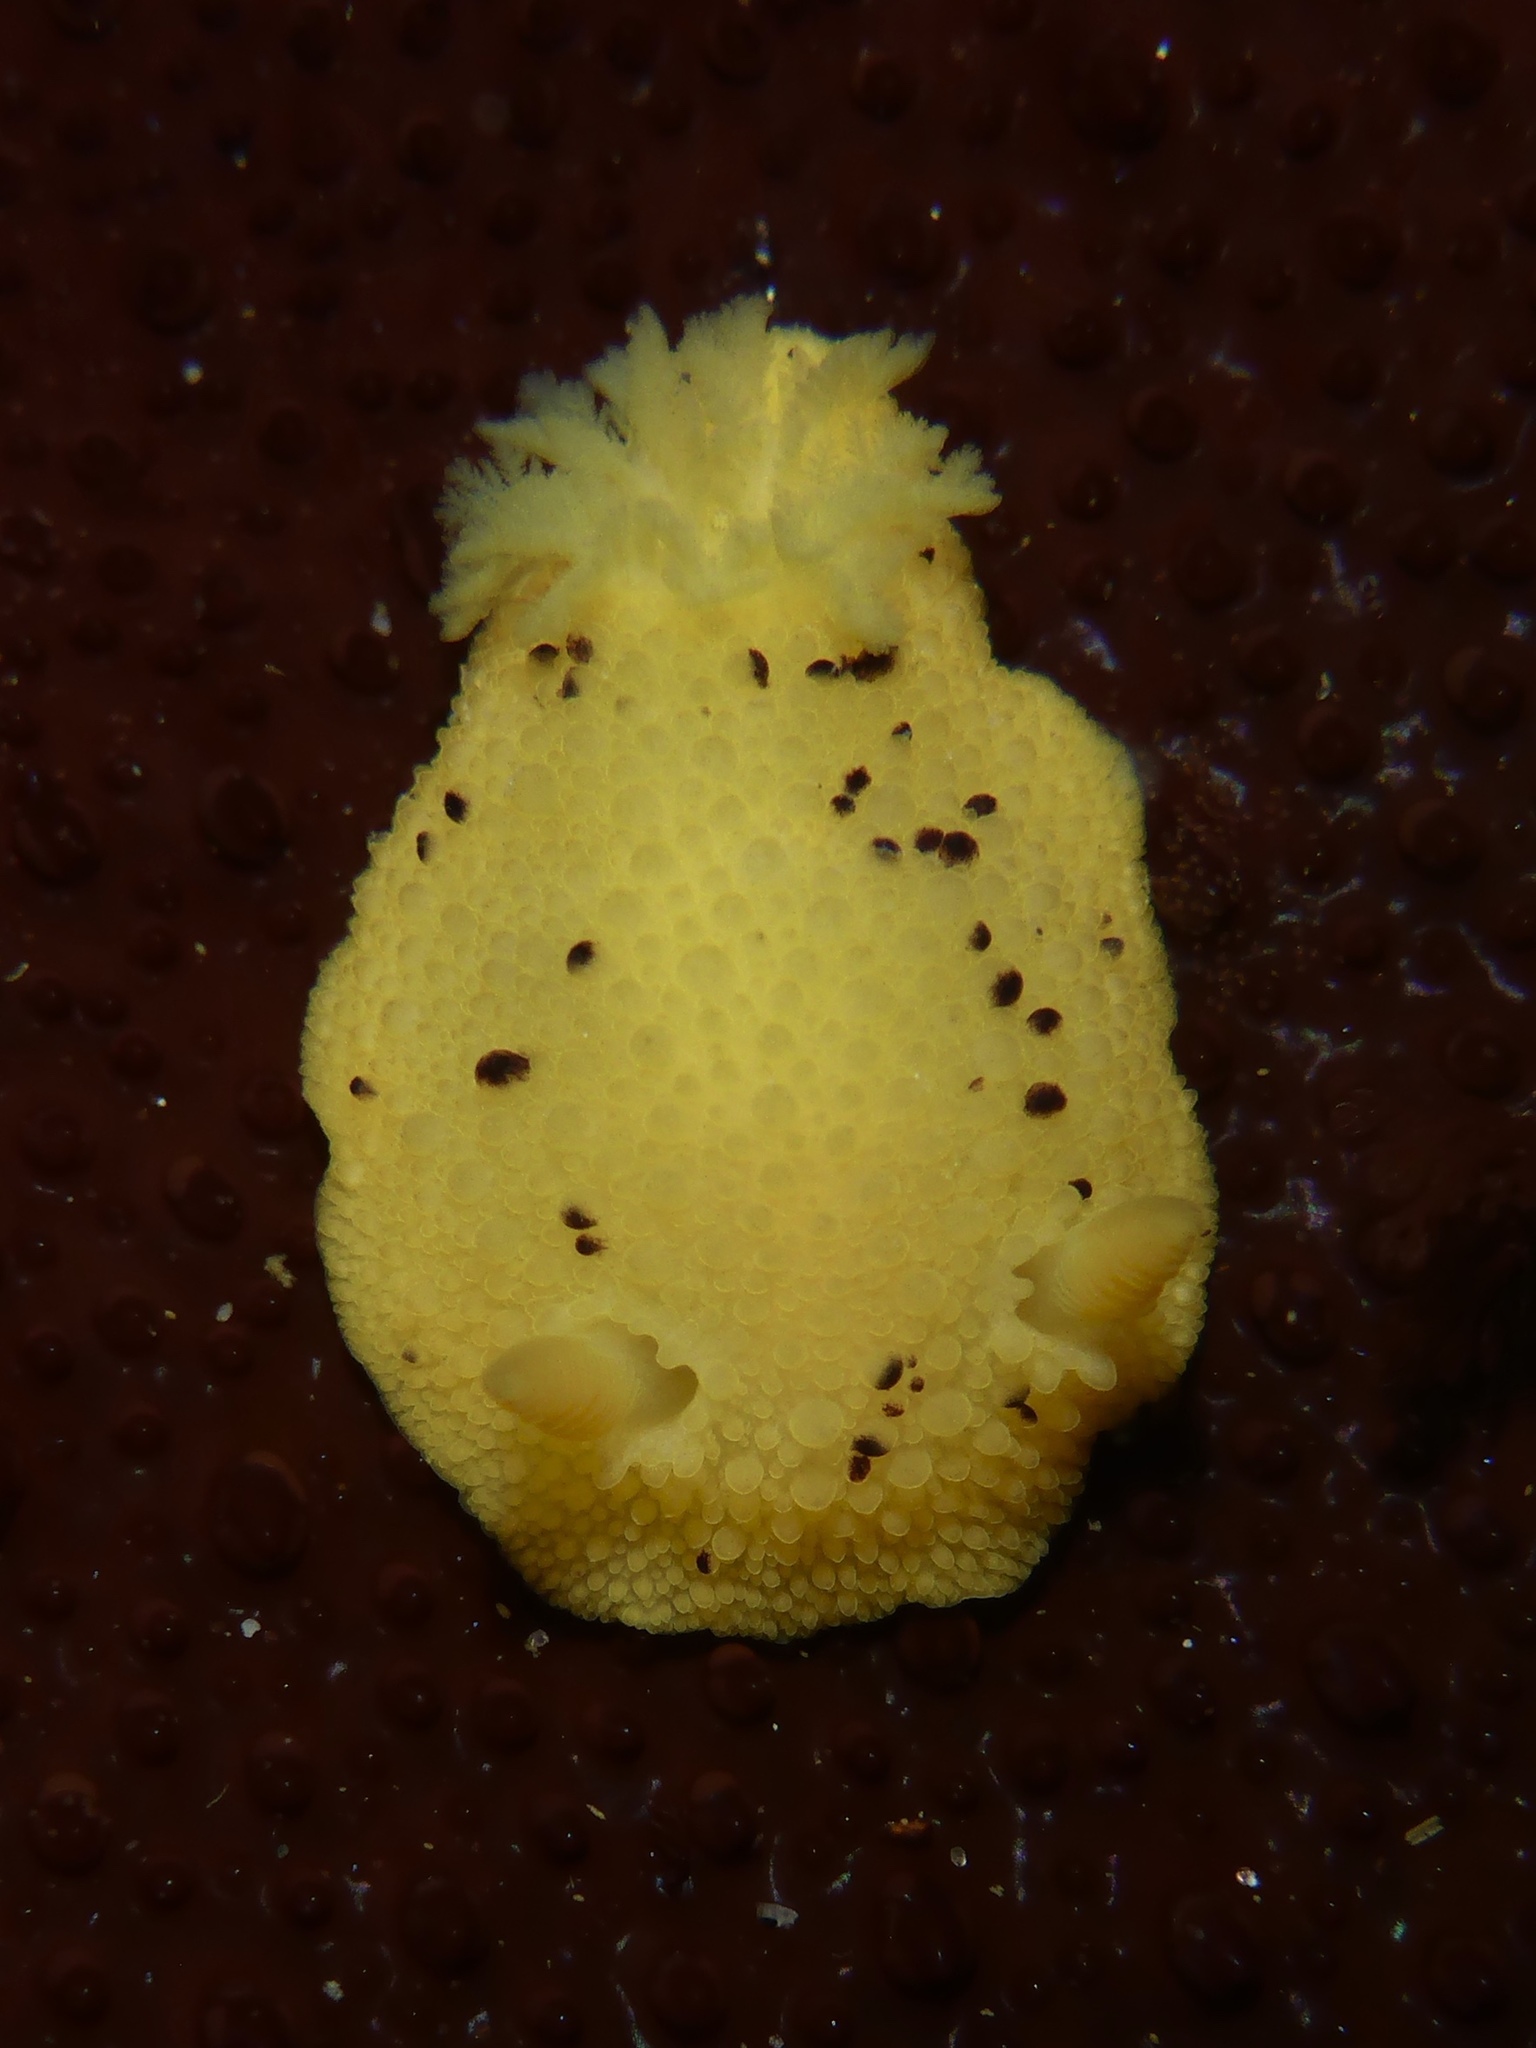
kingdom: Animalia
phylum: Mollusca
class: Gastropoda
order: Nudibranchia
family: Dorididae
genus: Doris
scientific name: Doris montereyensis
